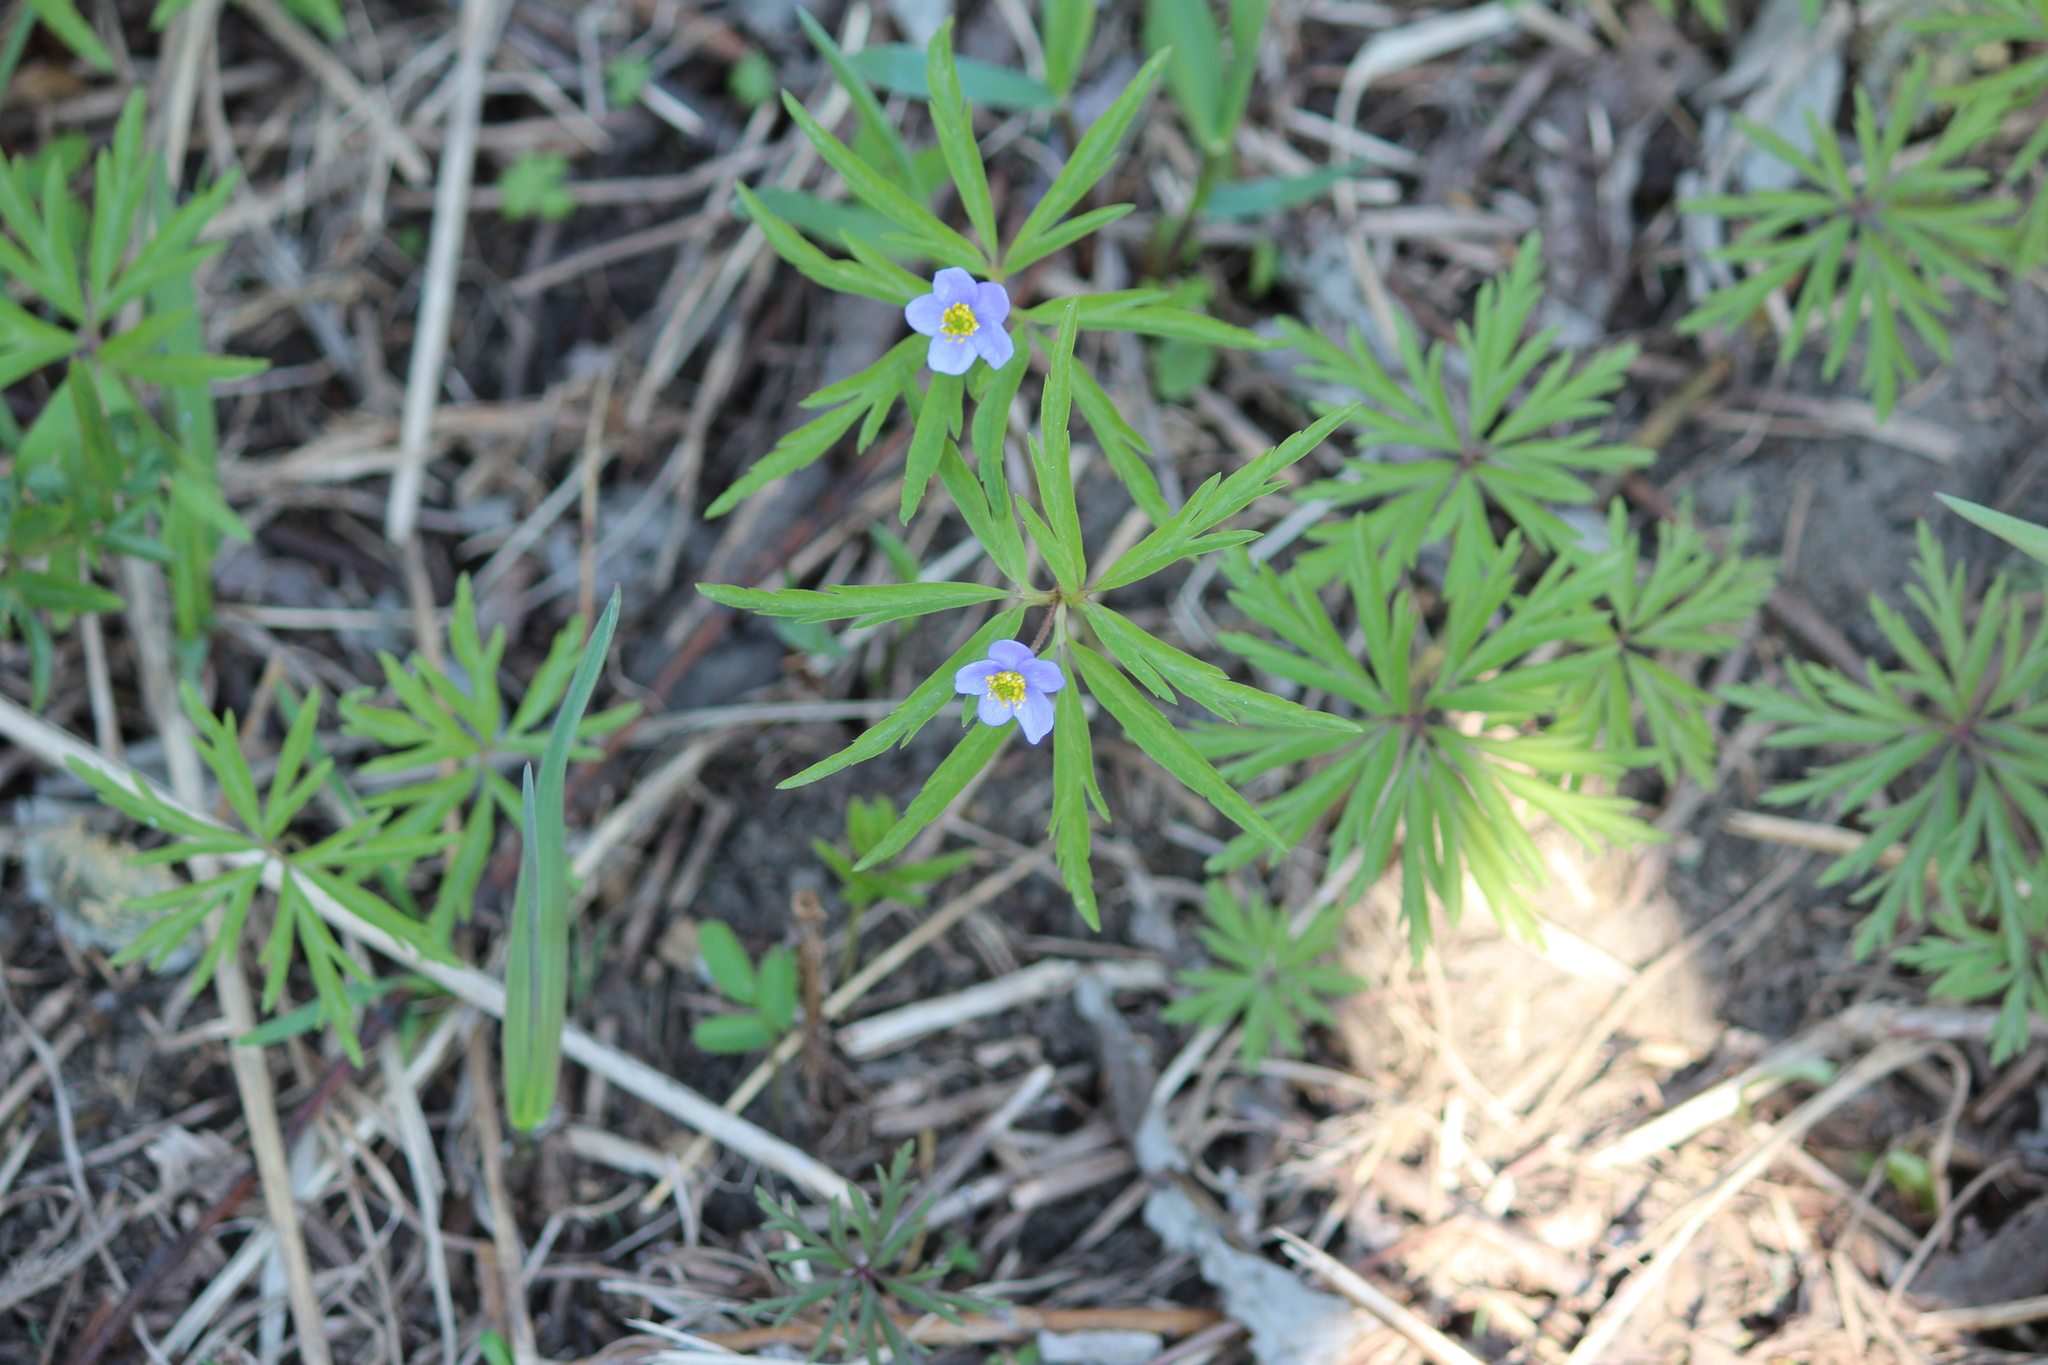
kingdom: Plantae
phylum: Tracheophyta
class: Magnoliopsida
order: Ranunculales
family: Ranunculaceae
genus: Anemone
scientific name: Anemone caerulea
